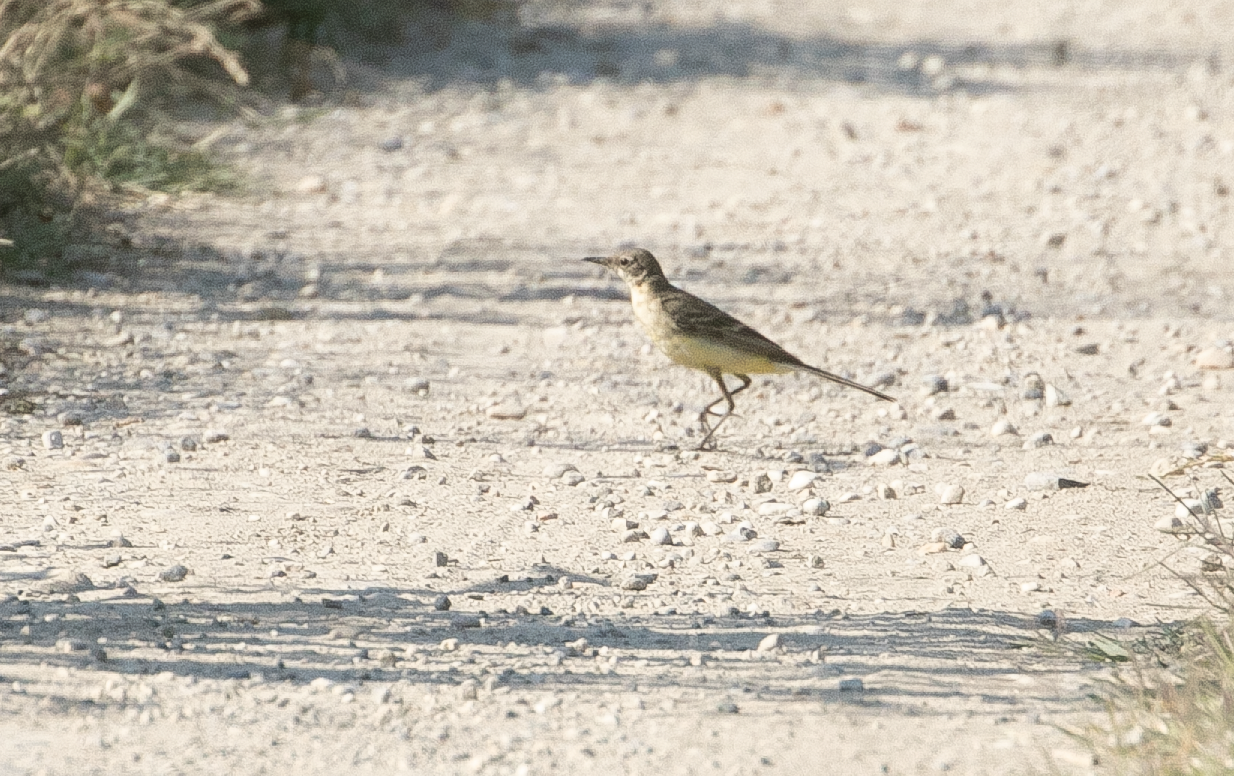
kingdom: Animalia
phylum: Chordata
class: Aves
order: Passeriformes
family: Motacillidae
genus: Motacilla
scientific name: Motacilla flava
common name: Western yellow wagtail
